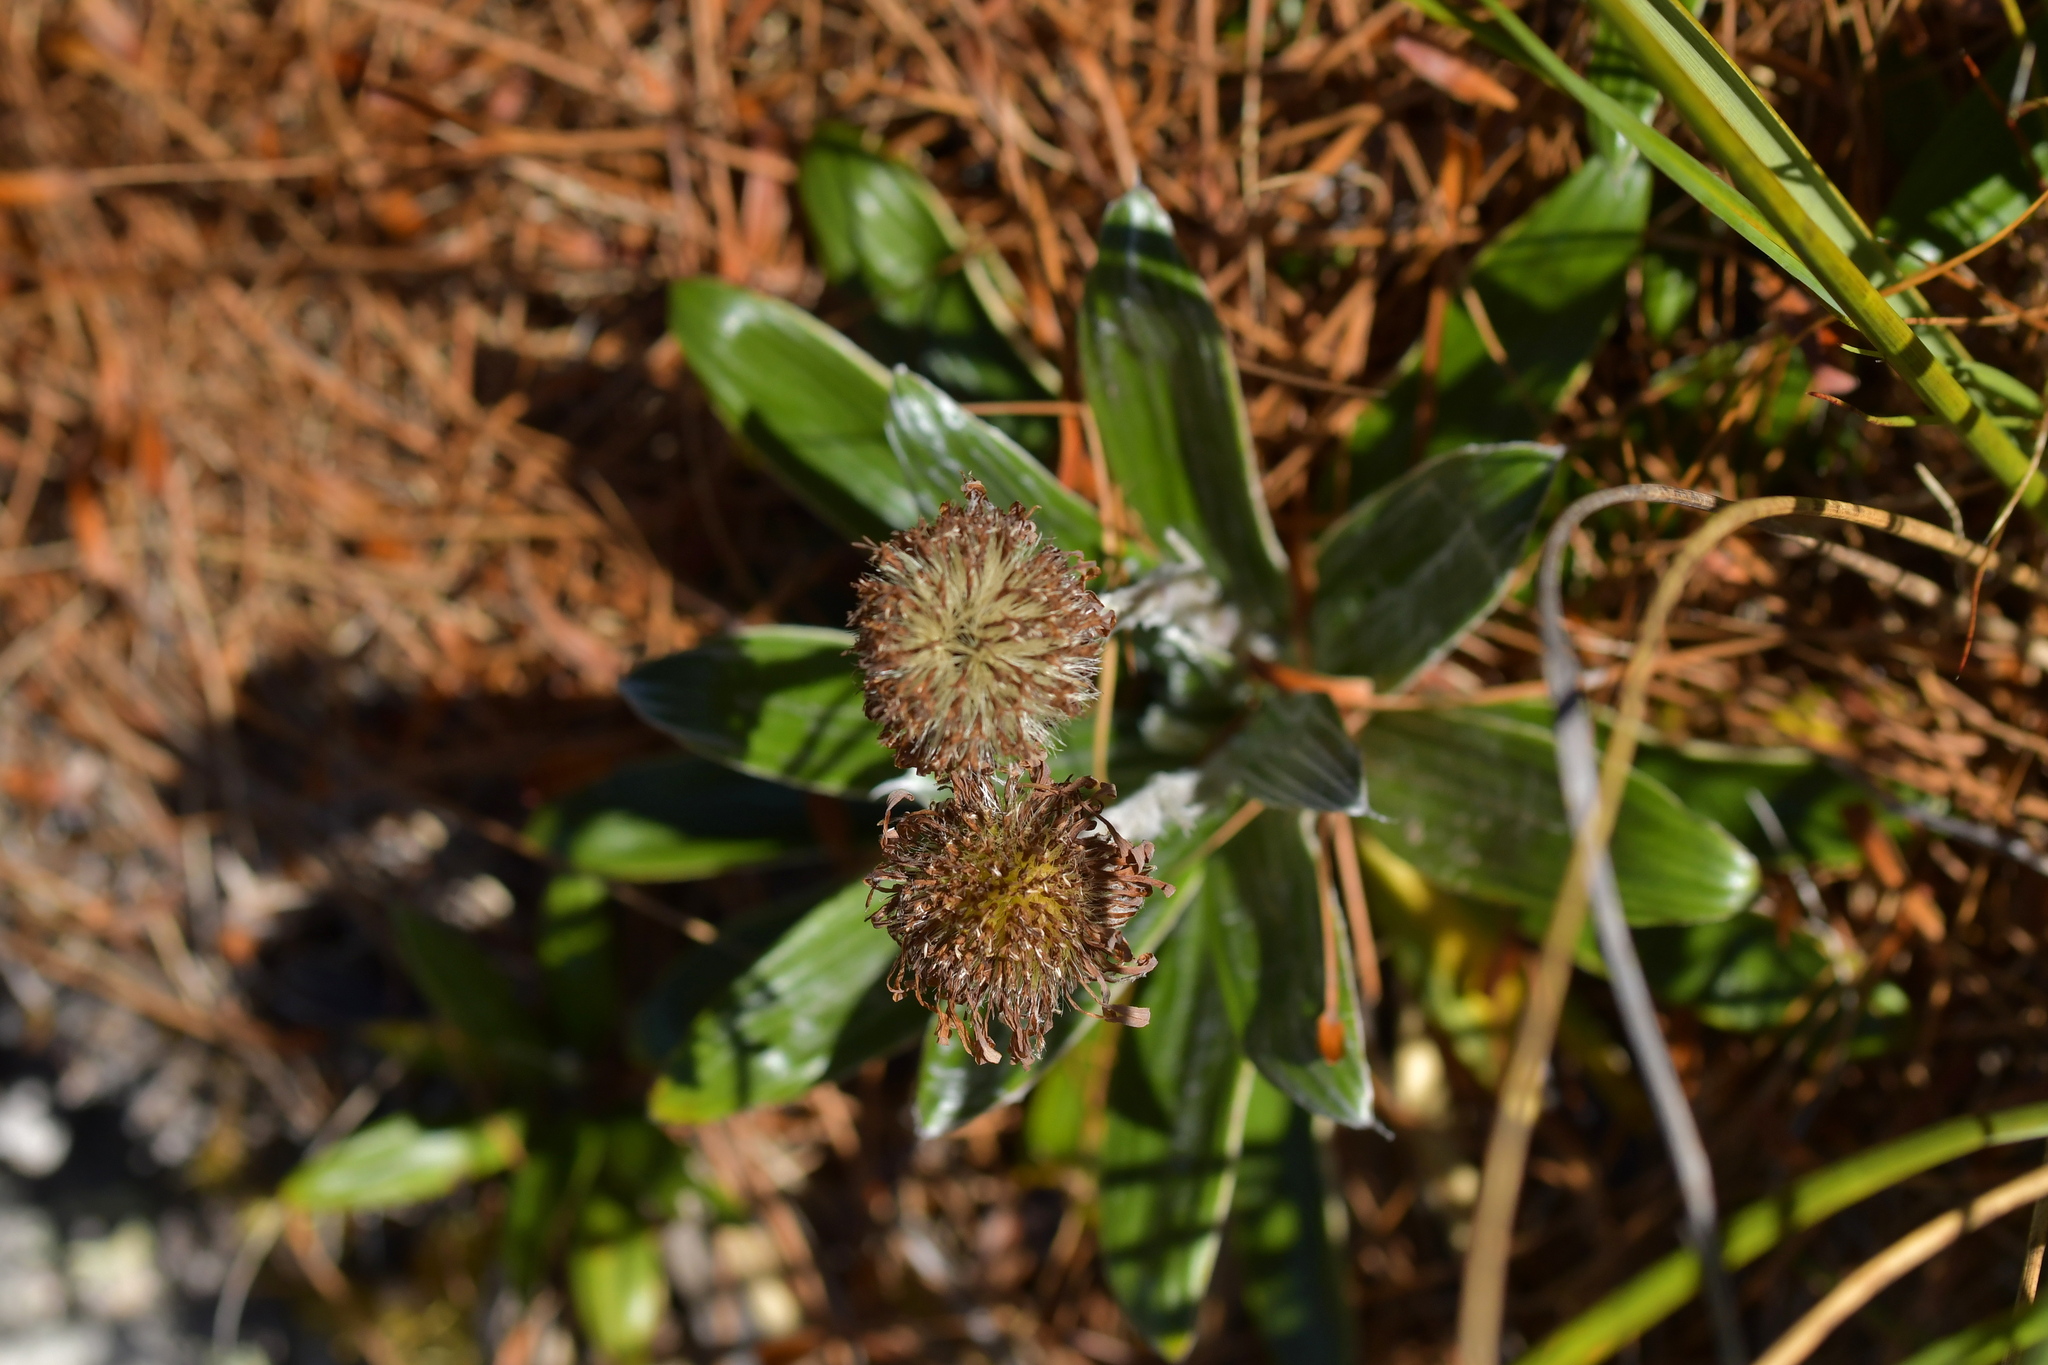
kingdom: Plantae
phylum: Tracheophyta
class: Magnoliopsida
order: Asterales
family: Asteraceae
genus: Celmisia
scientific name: Celmisia spectabilis
